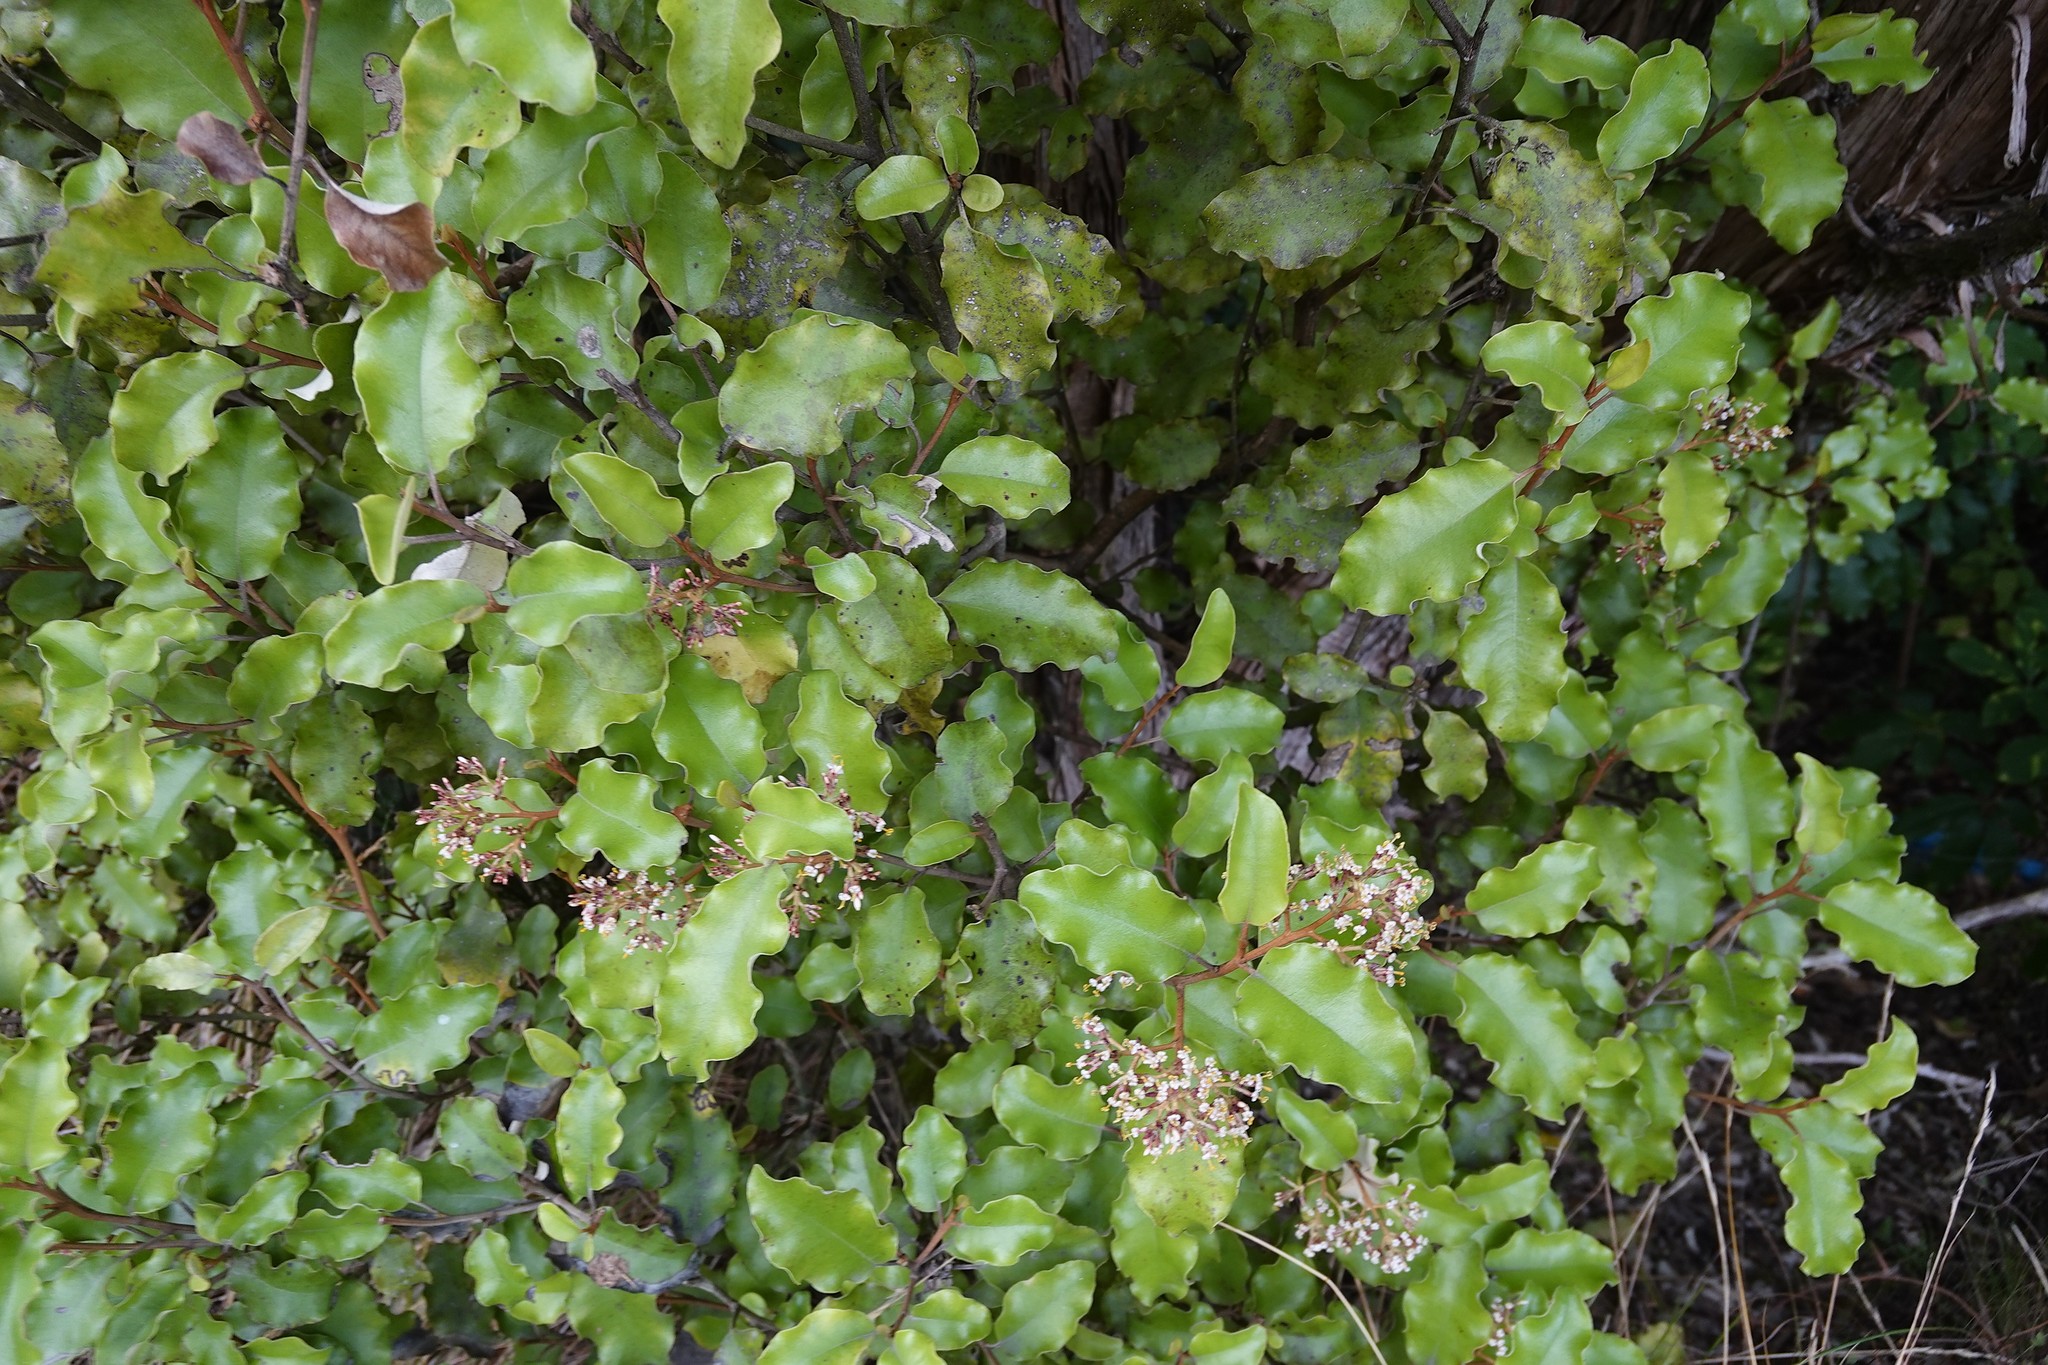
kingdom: Plantae
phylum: Tracheophyta
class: Magnoliopsida
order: Asterales
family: Asteraceae
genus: Olearia
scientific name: Olearia paniculata
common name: Akiraho
